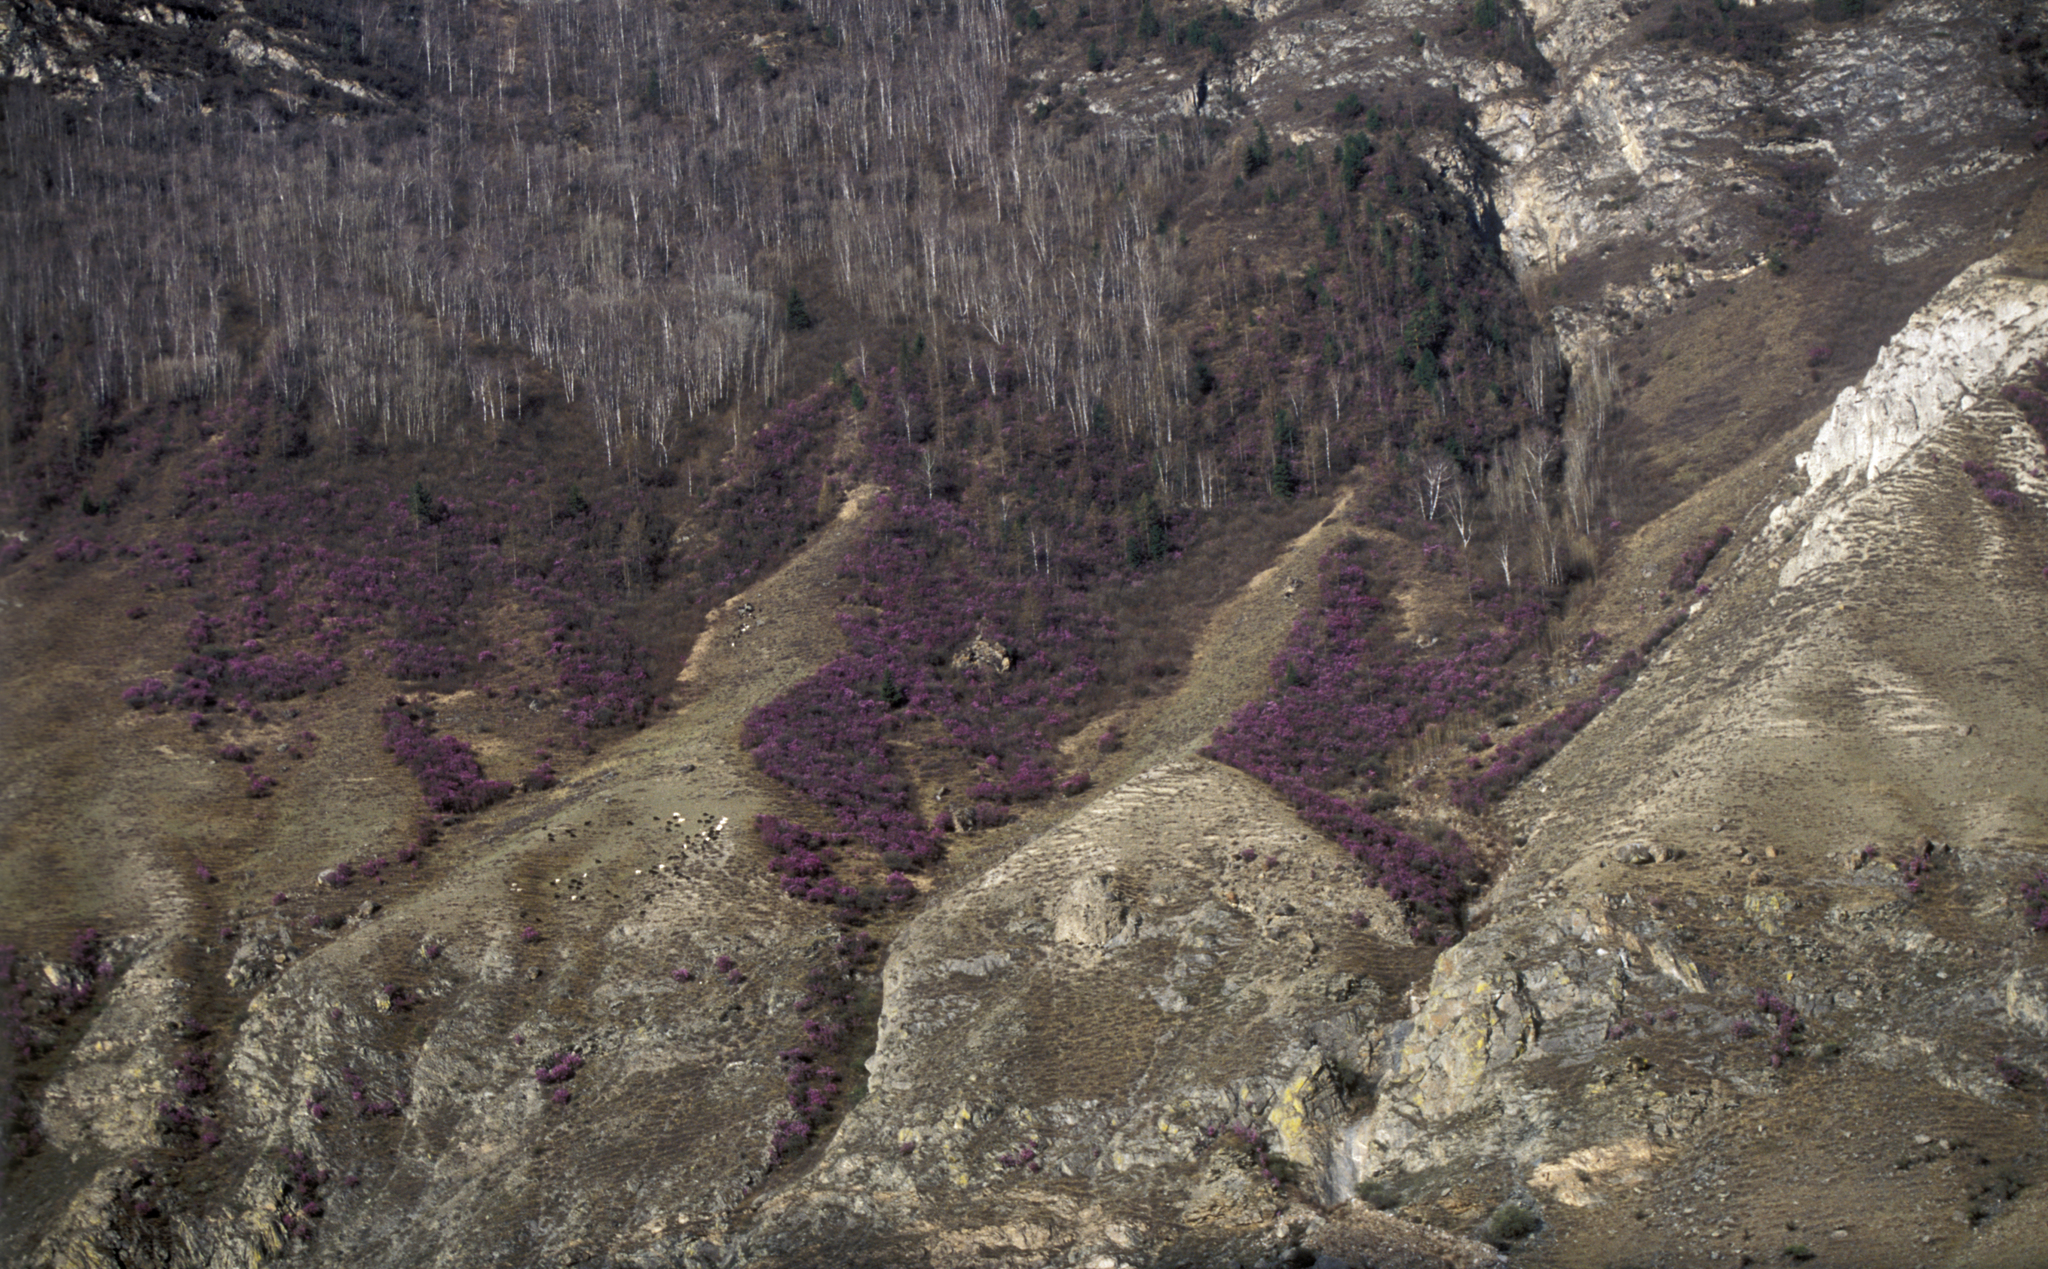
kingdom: Plantae
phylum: Tracheophyta
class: Magnoliopsida
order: Ericales
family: Ericaceae
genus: Rhododendron
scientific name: Rhododendron dauricum
